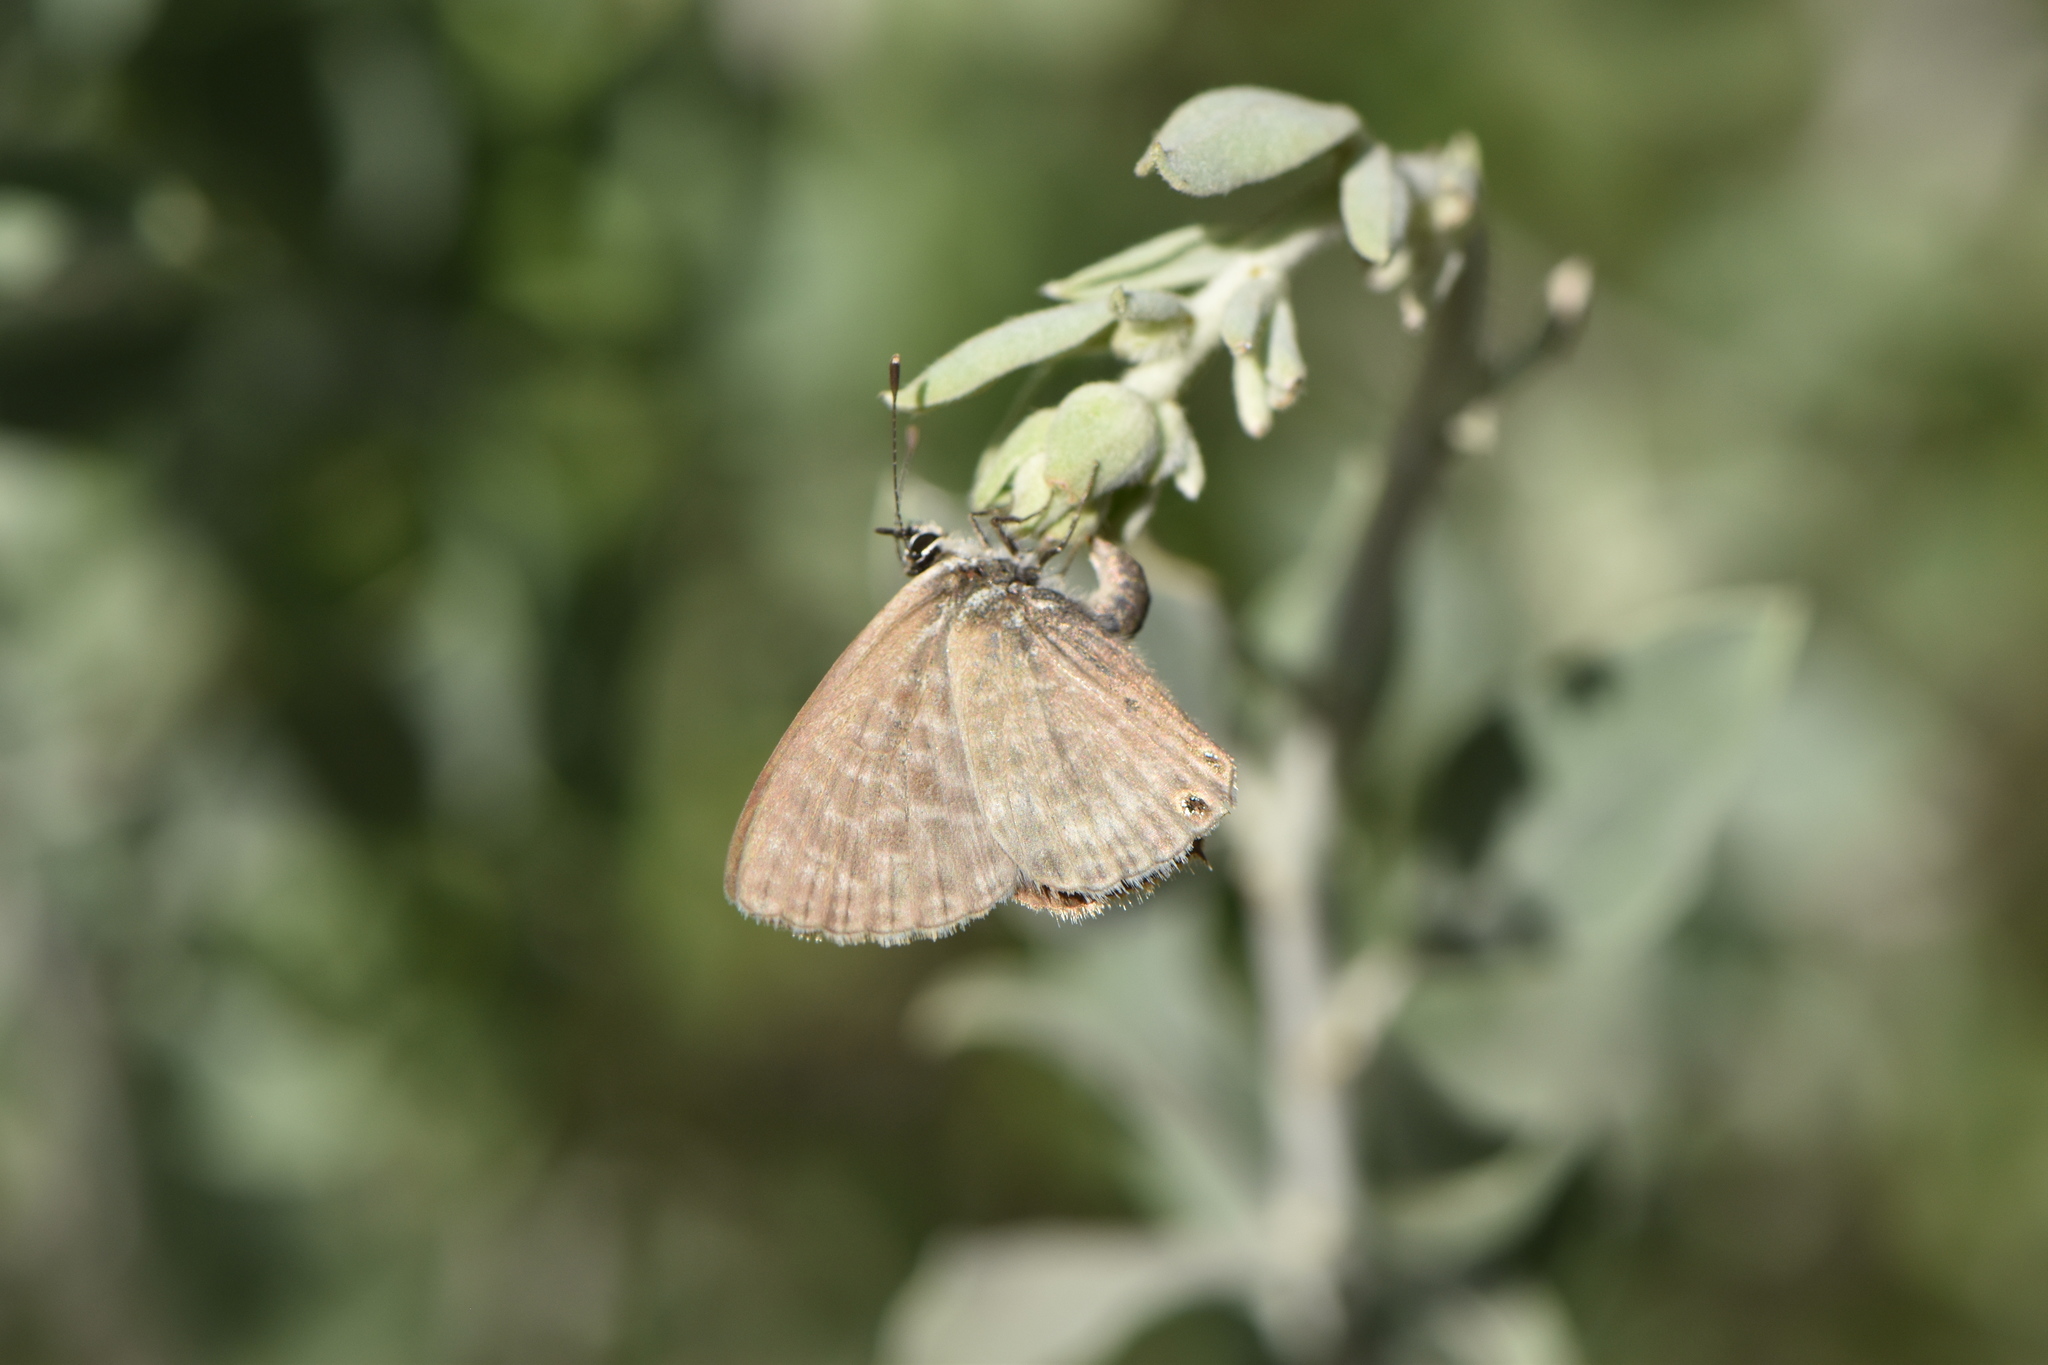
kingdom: Animalia
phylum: Arthropoda
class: Insecta
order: Lepidoptera
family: Lycaenidae
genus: Leptotes
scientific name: Leptotes pirithous
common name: Lang's short-tailed blue
